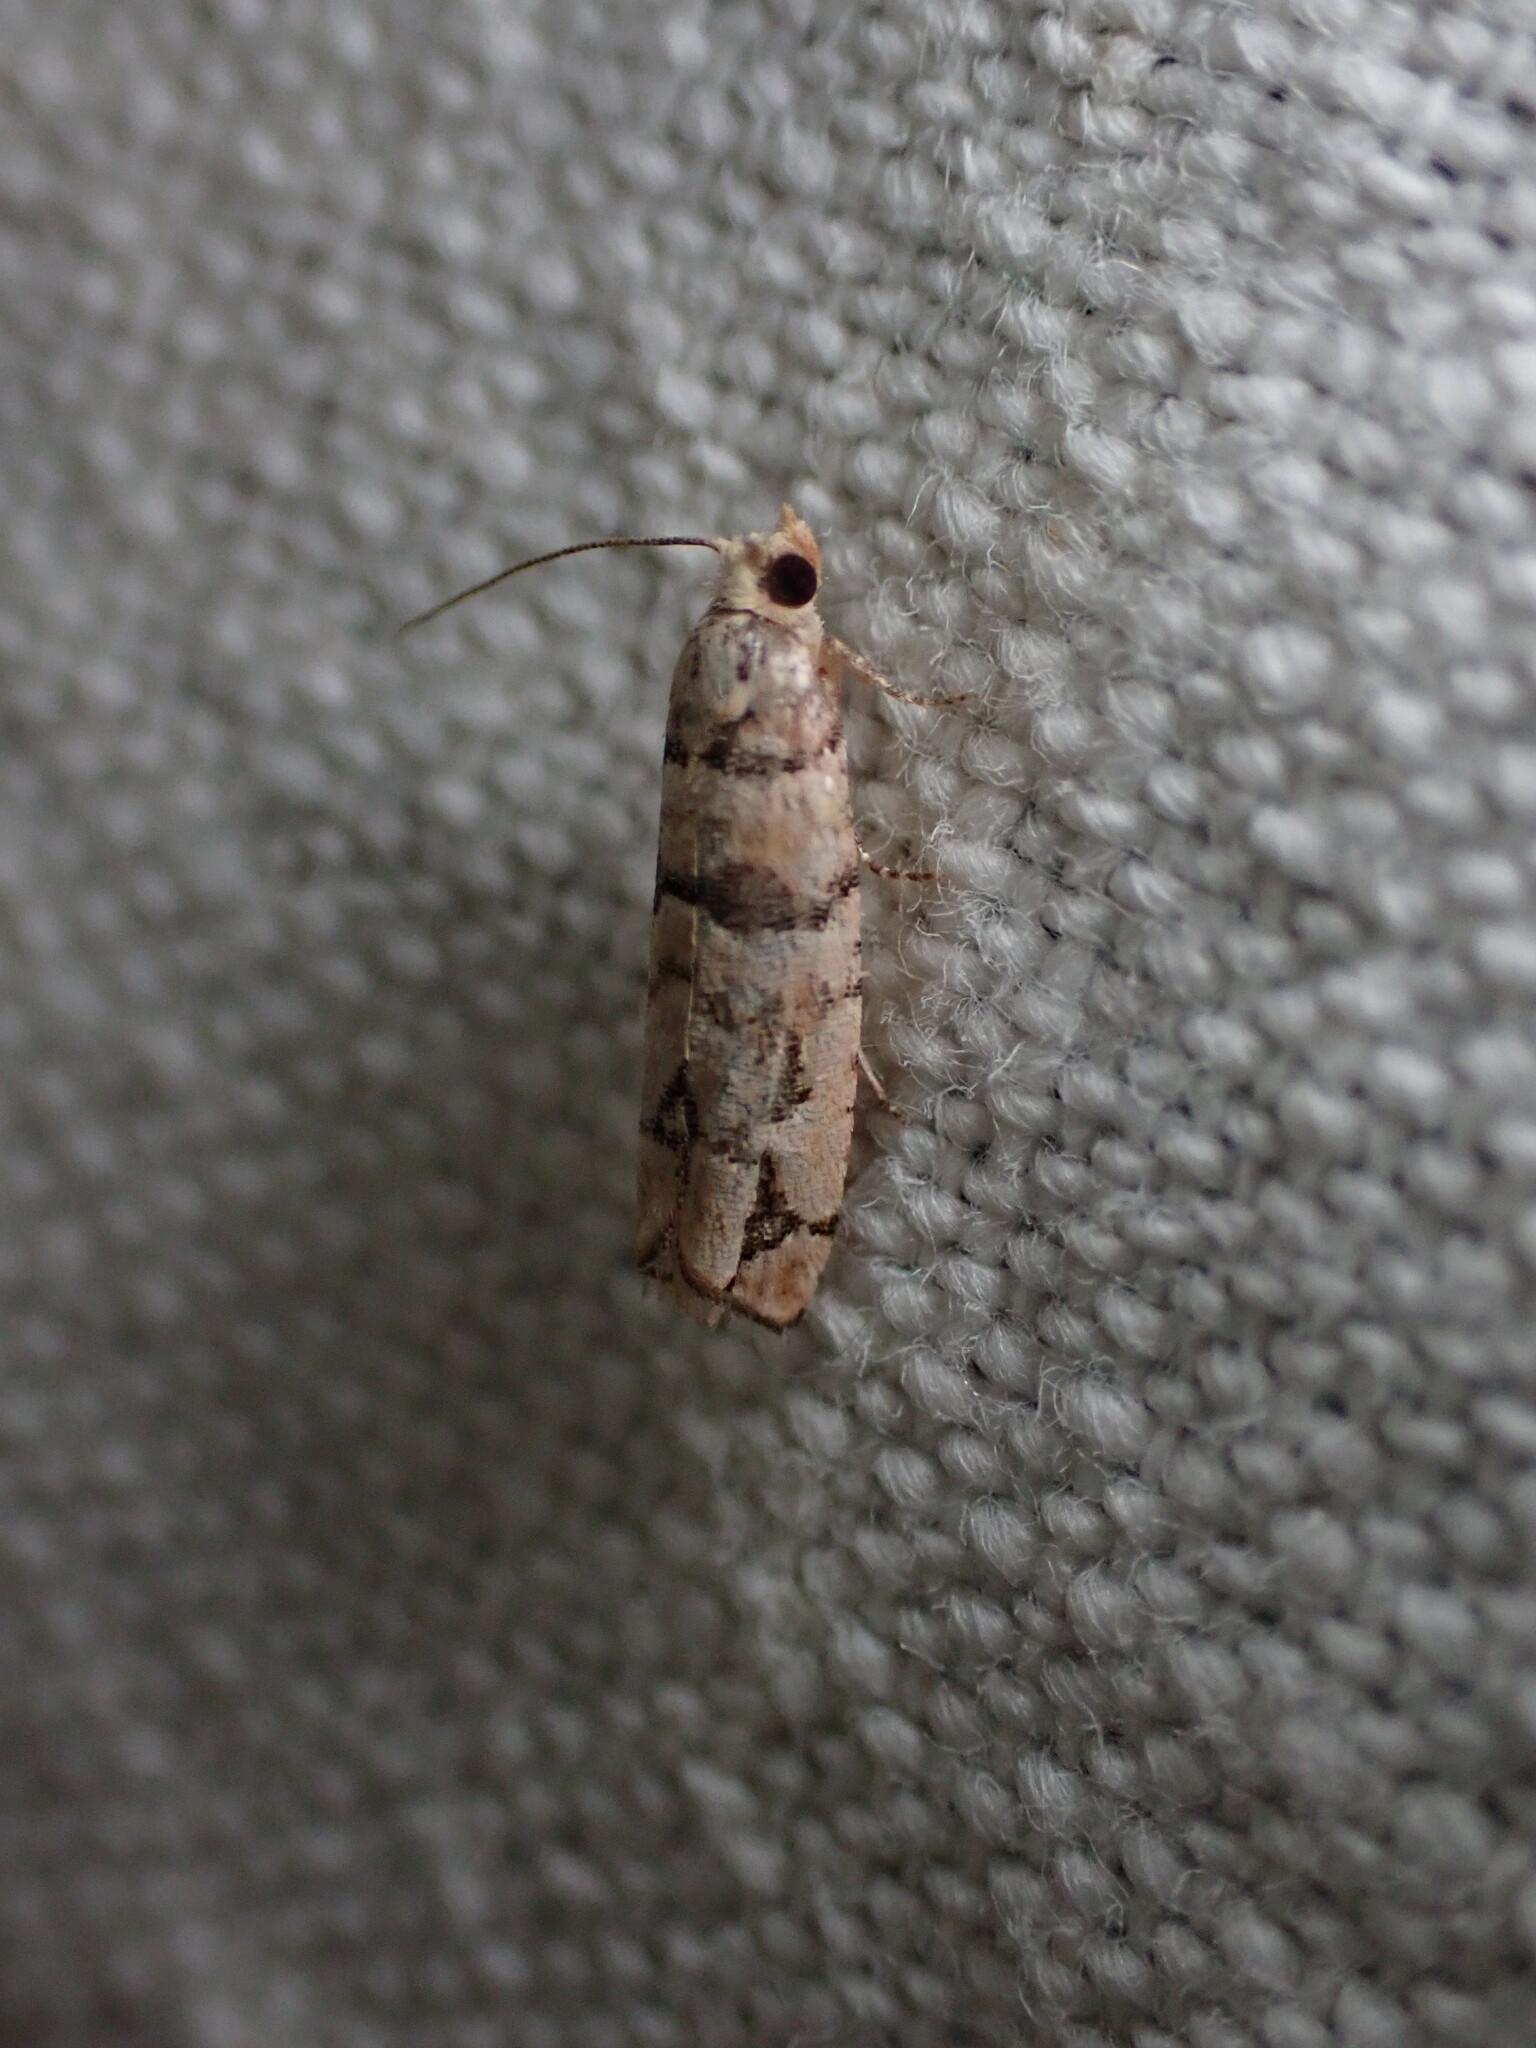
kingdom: Animalia
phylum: Arthropoda
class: Insecta
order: Lepidoptera
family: Tortricidae
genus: Blastesthia
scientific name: Blastesthia tessulatana
